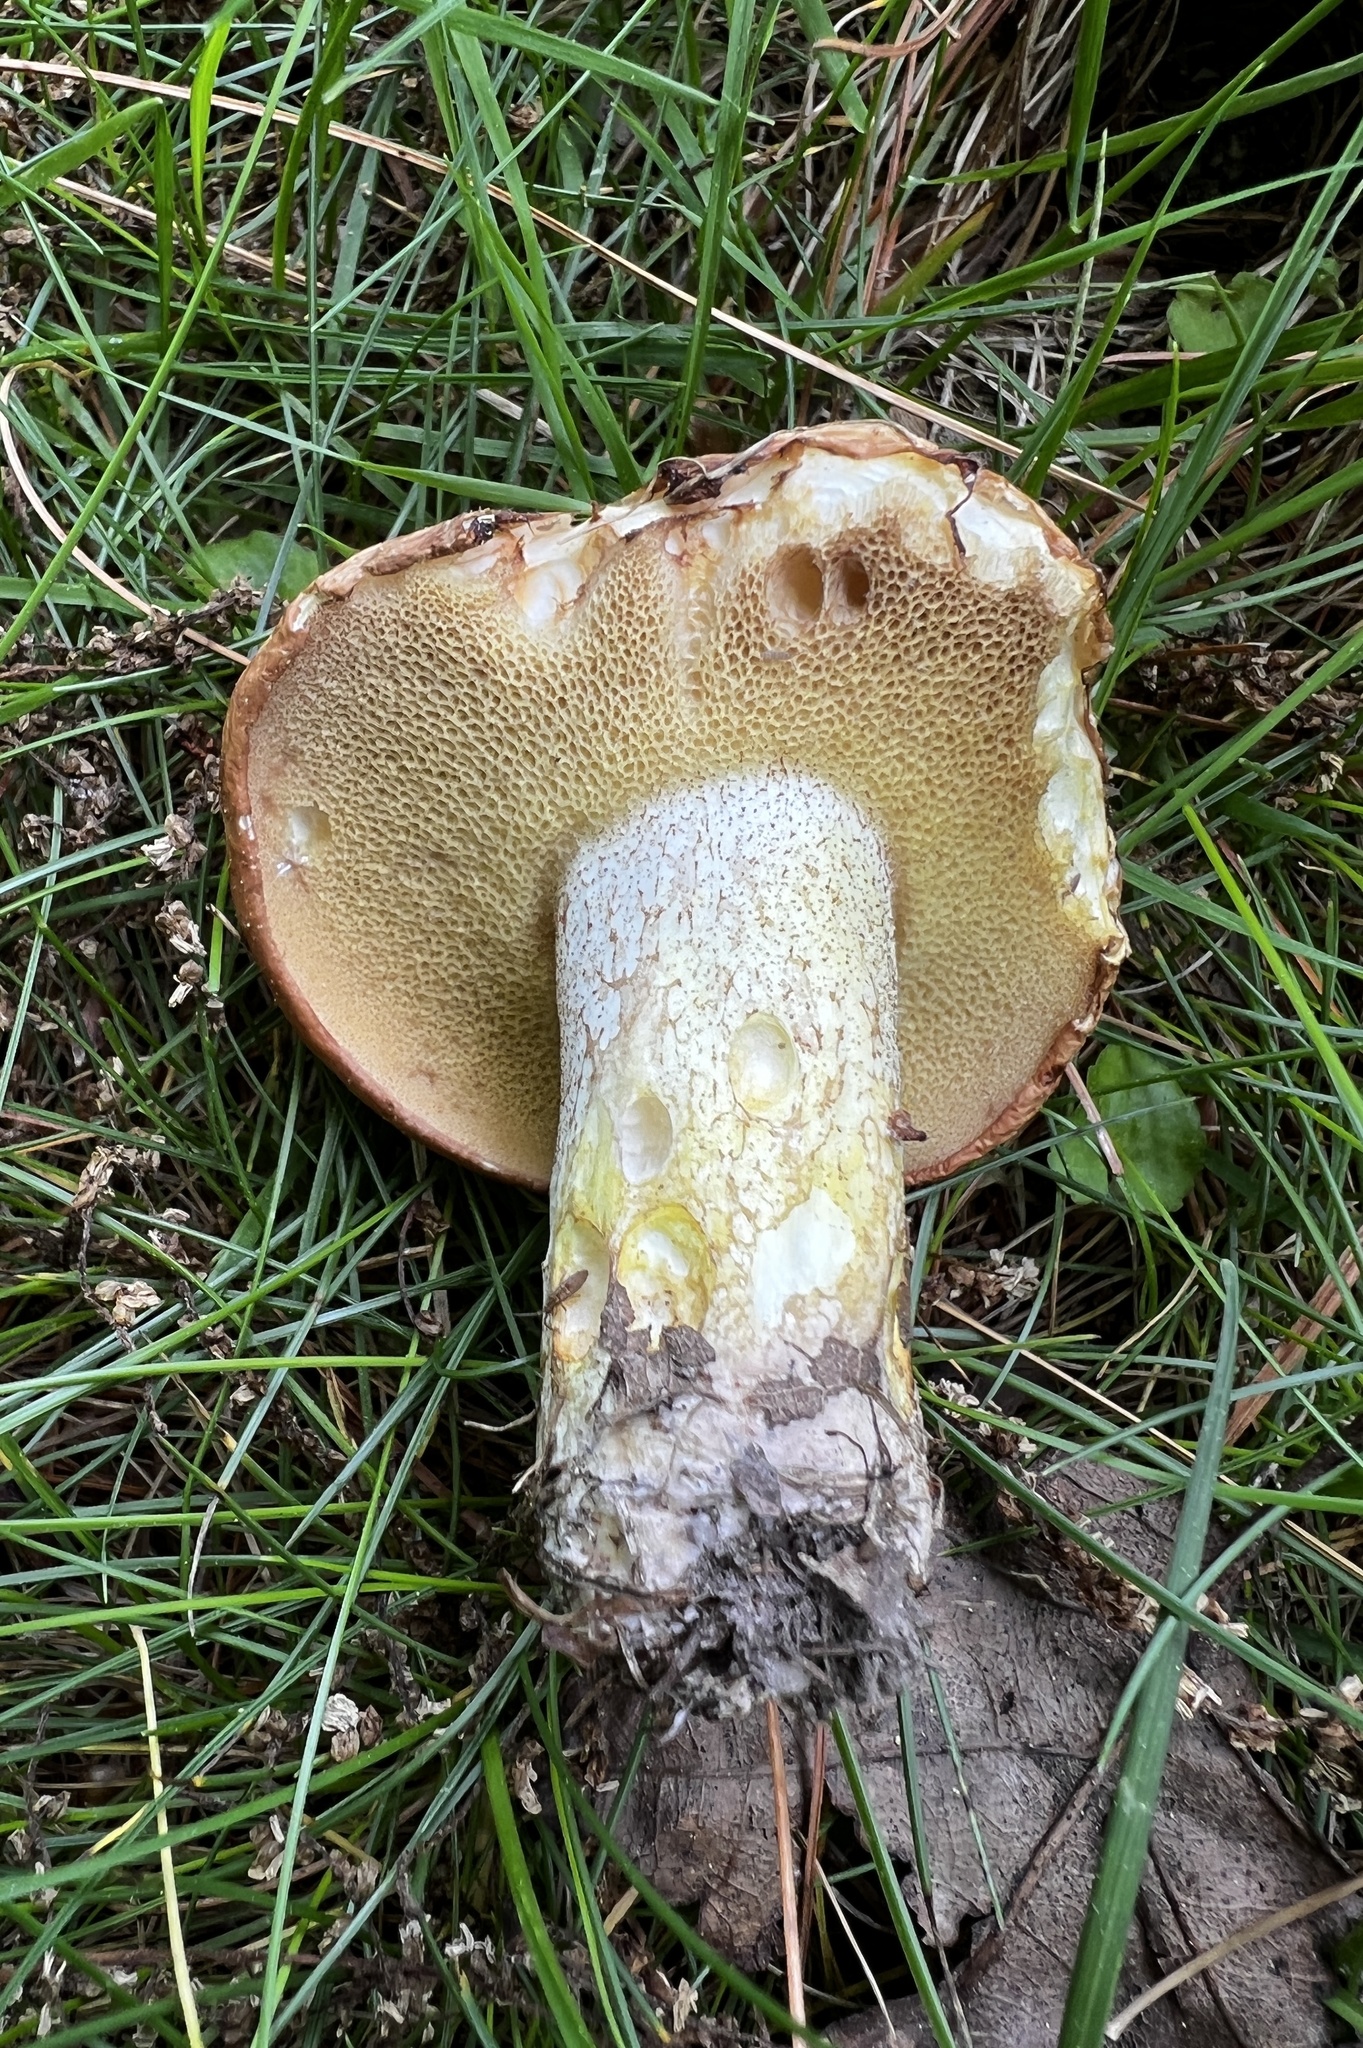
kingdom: Fungi
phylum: Basidiomycota
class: Agaricomycetes
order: Boletales
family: Suillaceae
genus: Fuscoboletinus
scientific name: Fuscoboletinus weaverae
